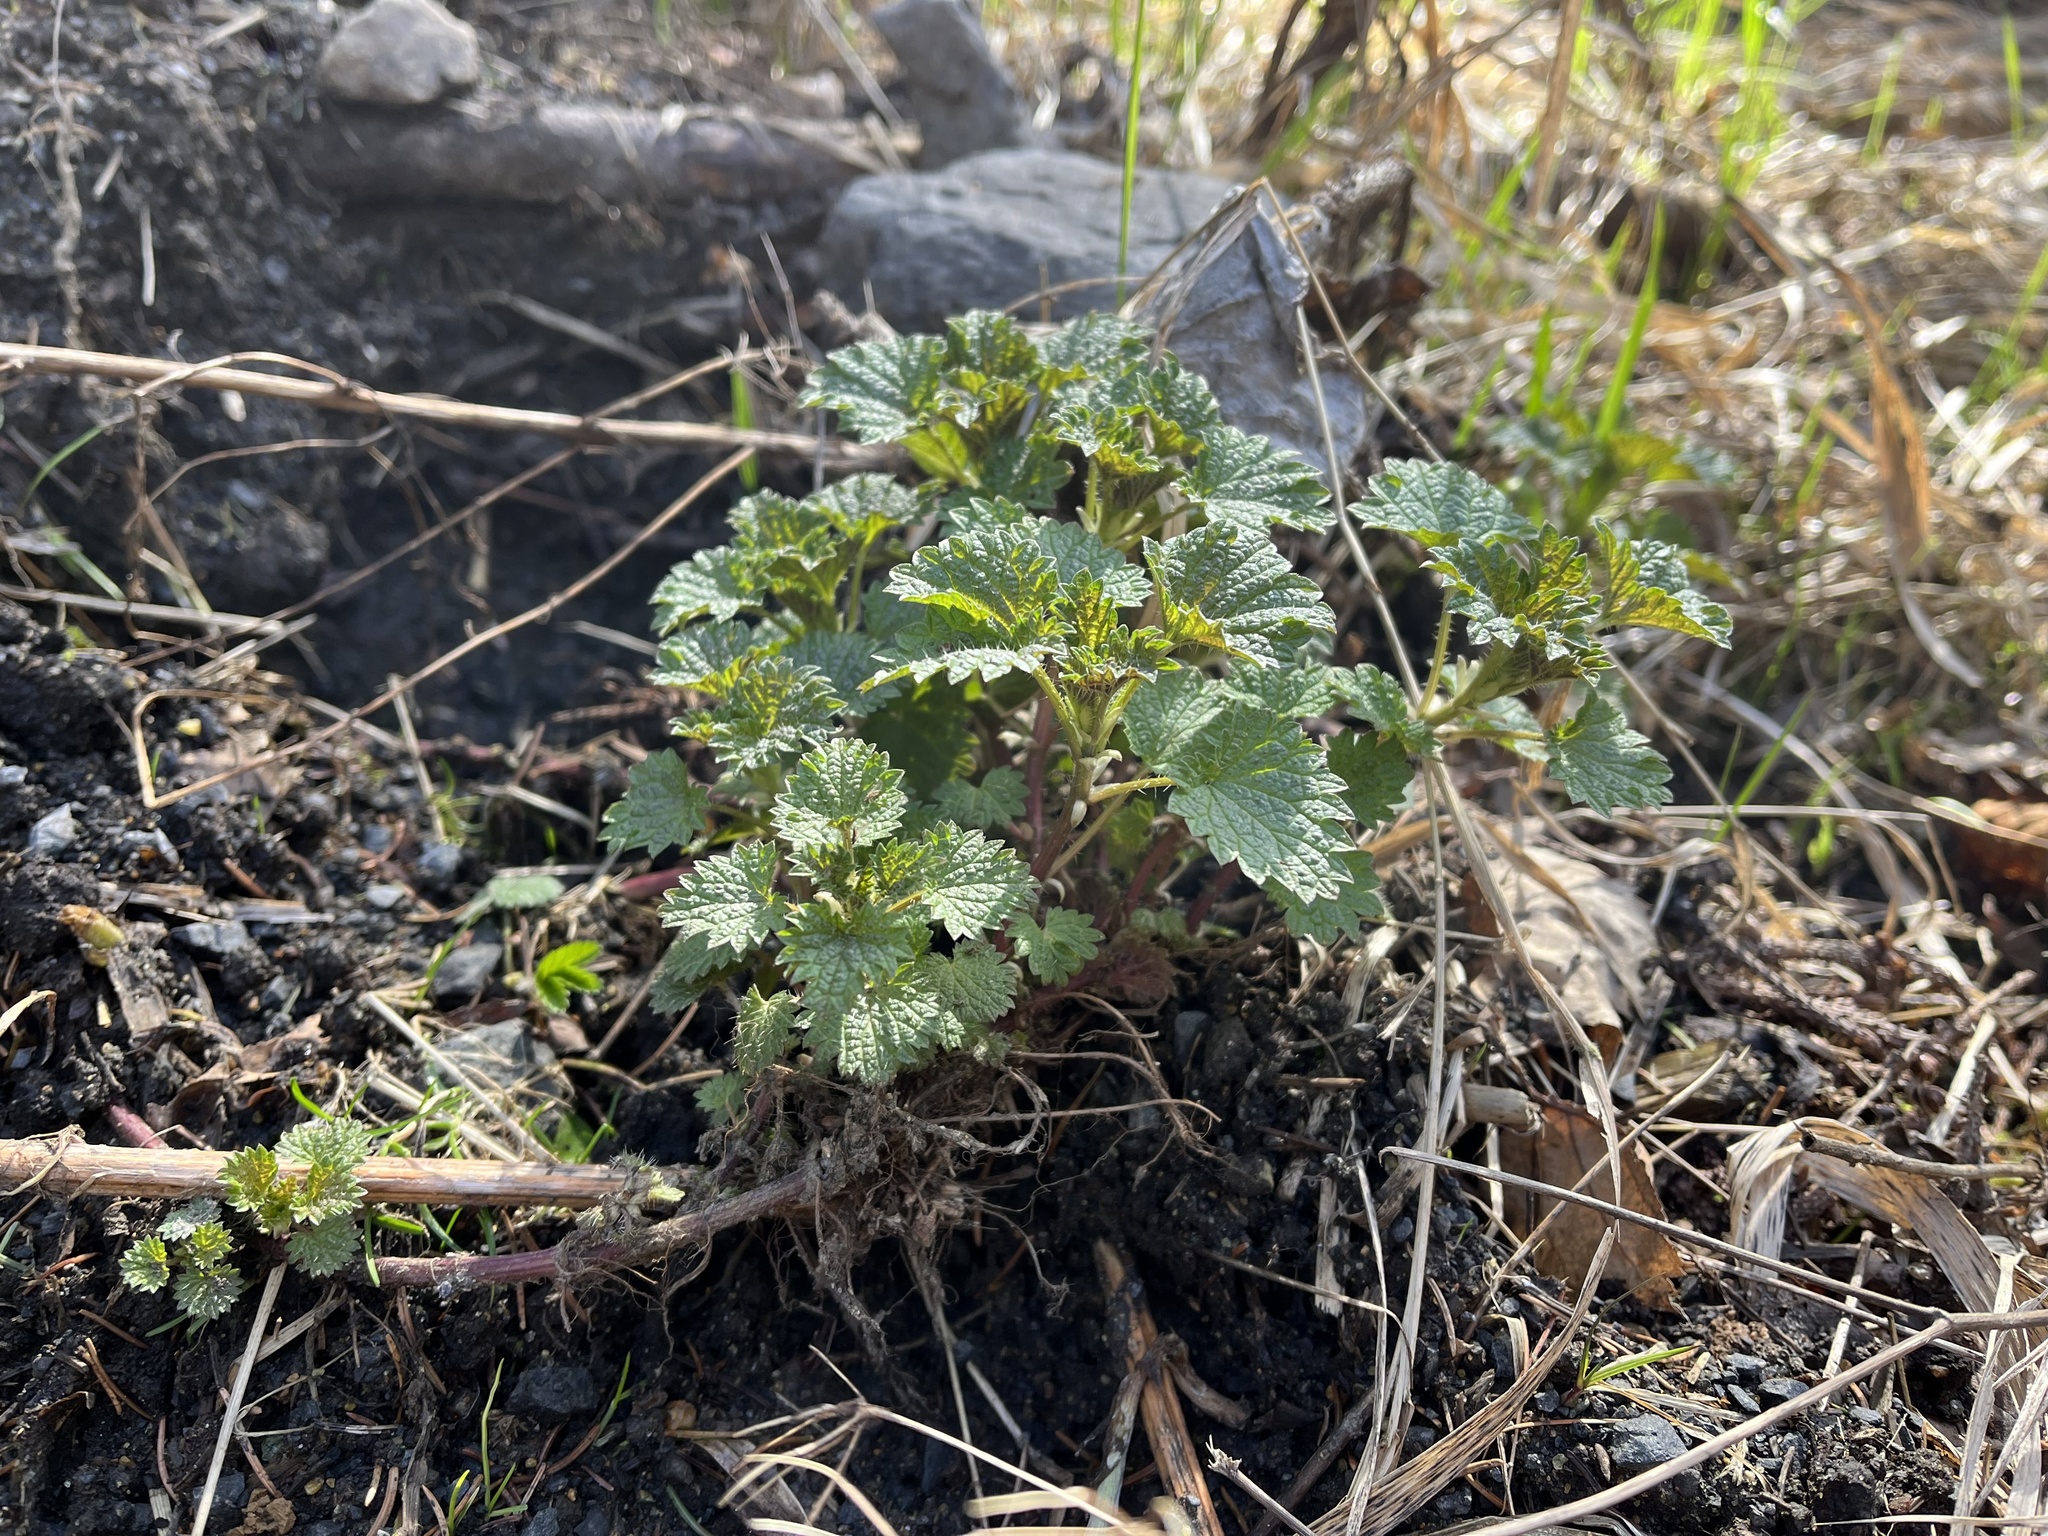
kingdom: Plantae
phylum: Tracheophyta
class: Magnoliopsida
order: Rosales
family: Urticaceae
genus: Urtica
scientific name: Urtica dioica
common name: Common nettle
